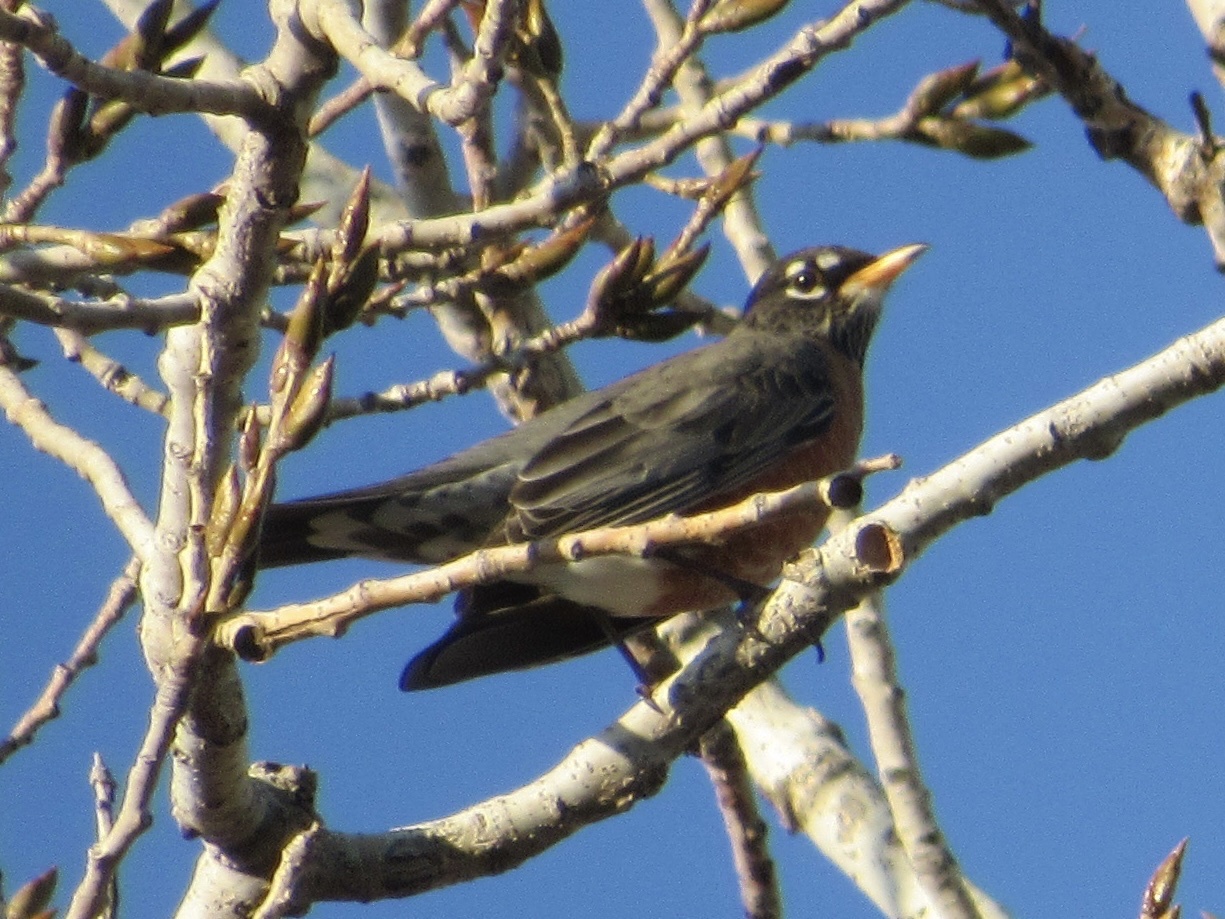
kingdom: Animalia
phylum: Chordata
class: Aves
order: Passeriformes
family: Turdidae
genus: Turdus
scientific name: Turdus migratorius
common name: American robin
